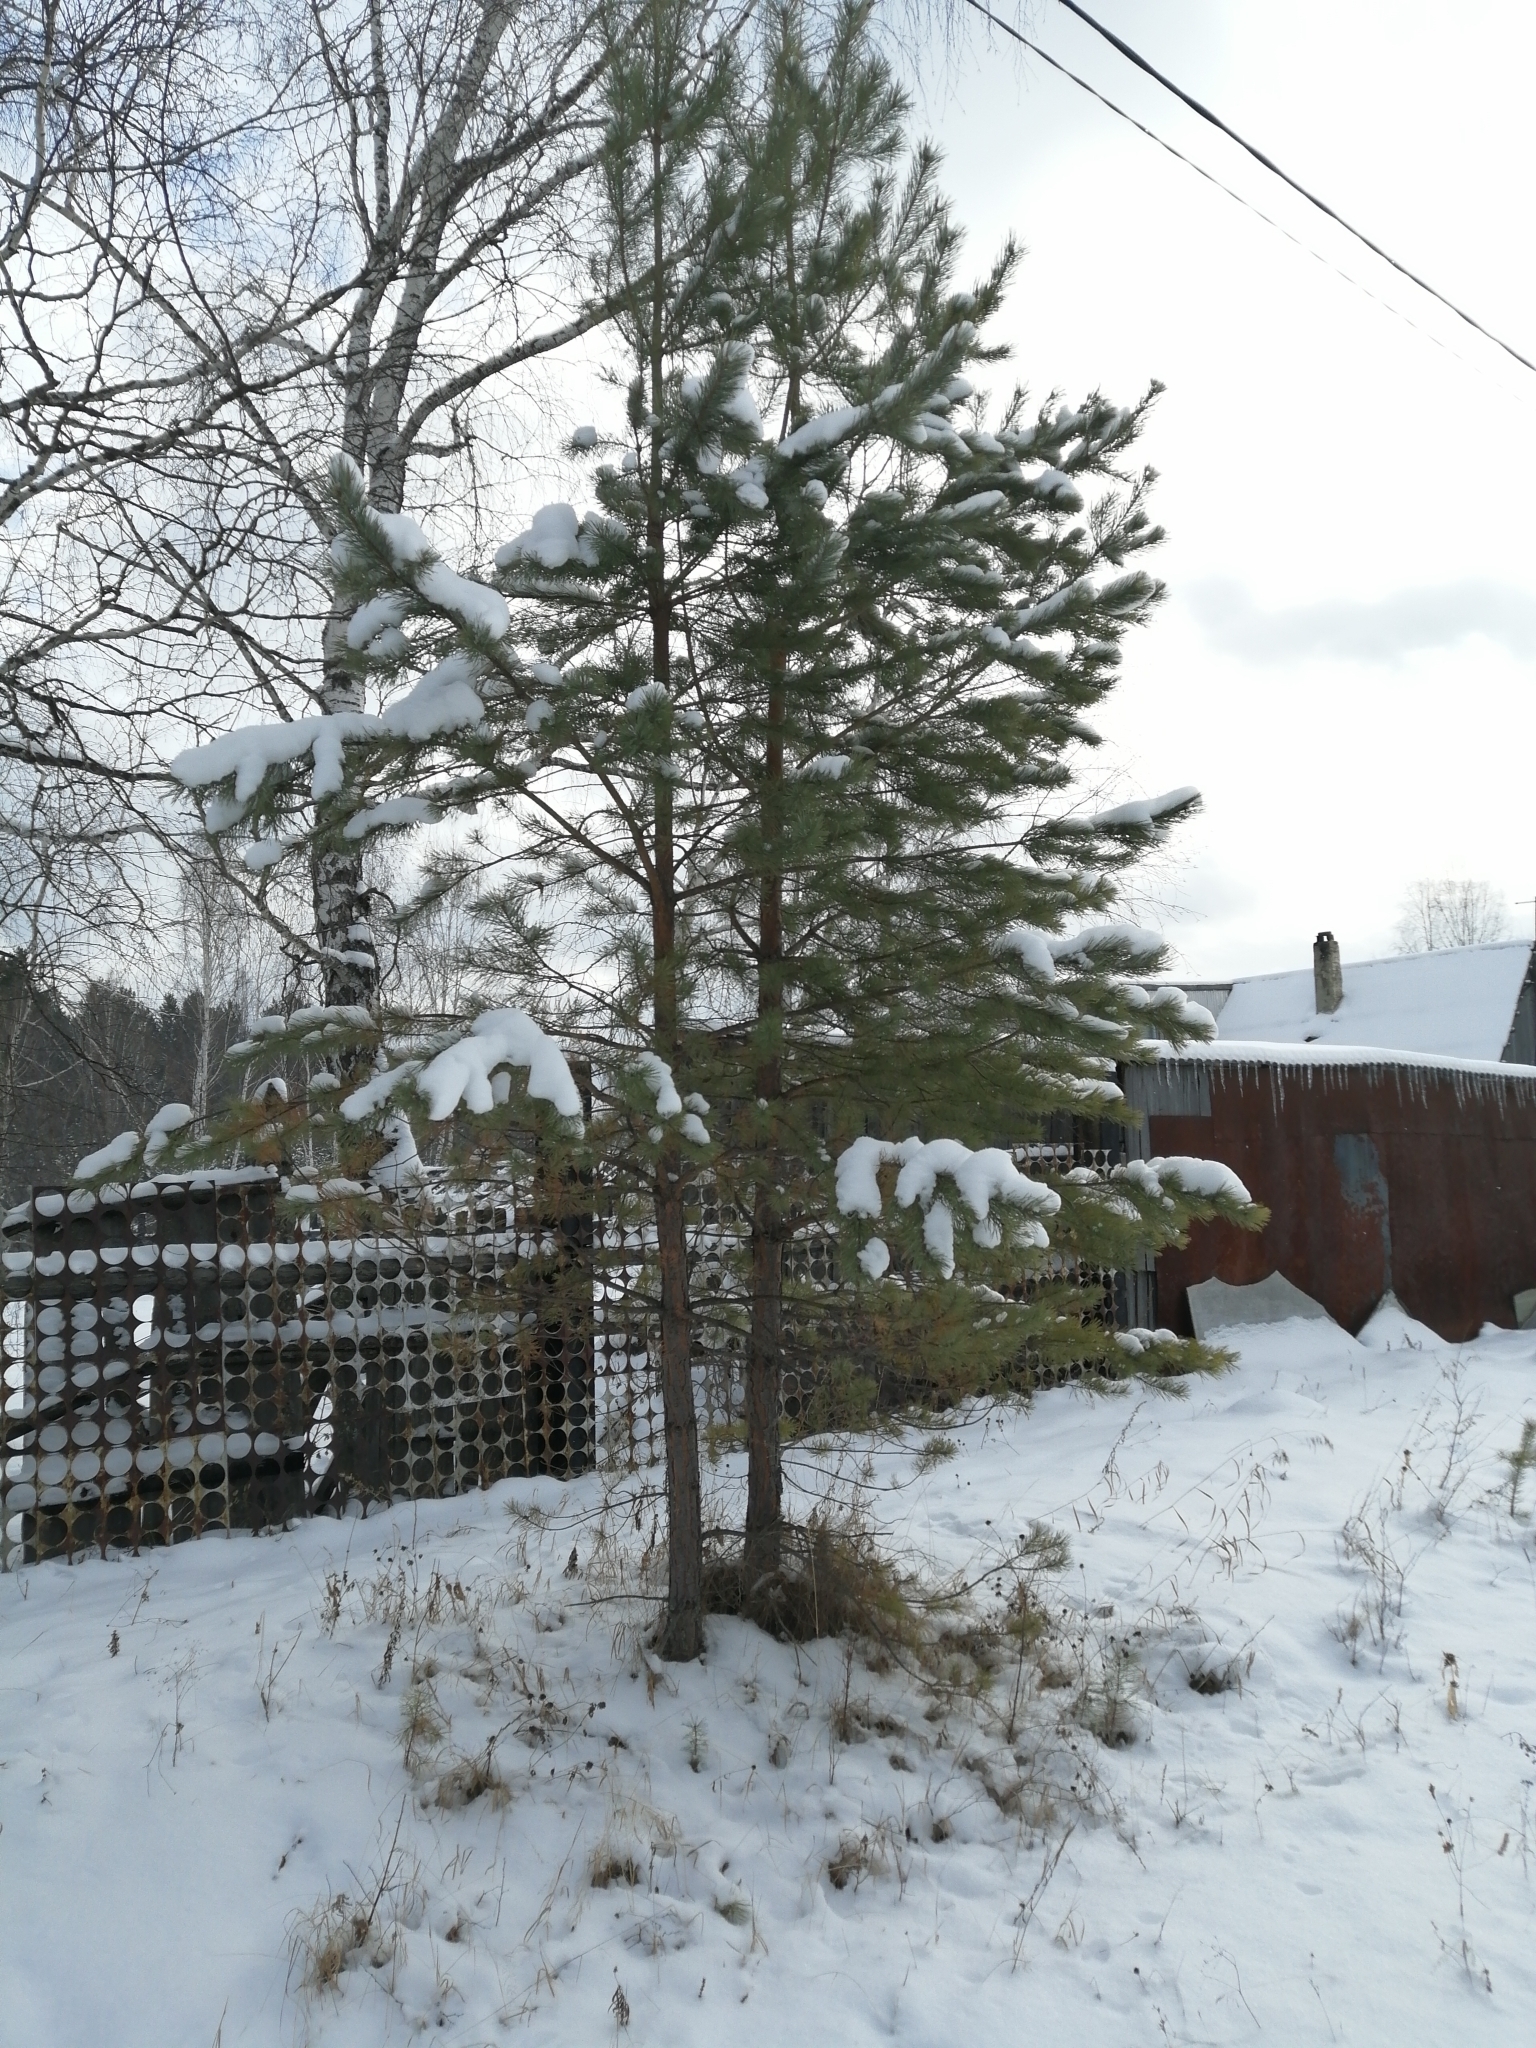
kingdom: Plantae
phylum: Tracheophyta
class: Pinopsida
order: Pinales
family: Pinaceae
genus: Pinus
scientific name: Pinus sylvestris
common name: Scots pine
